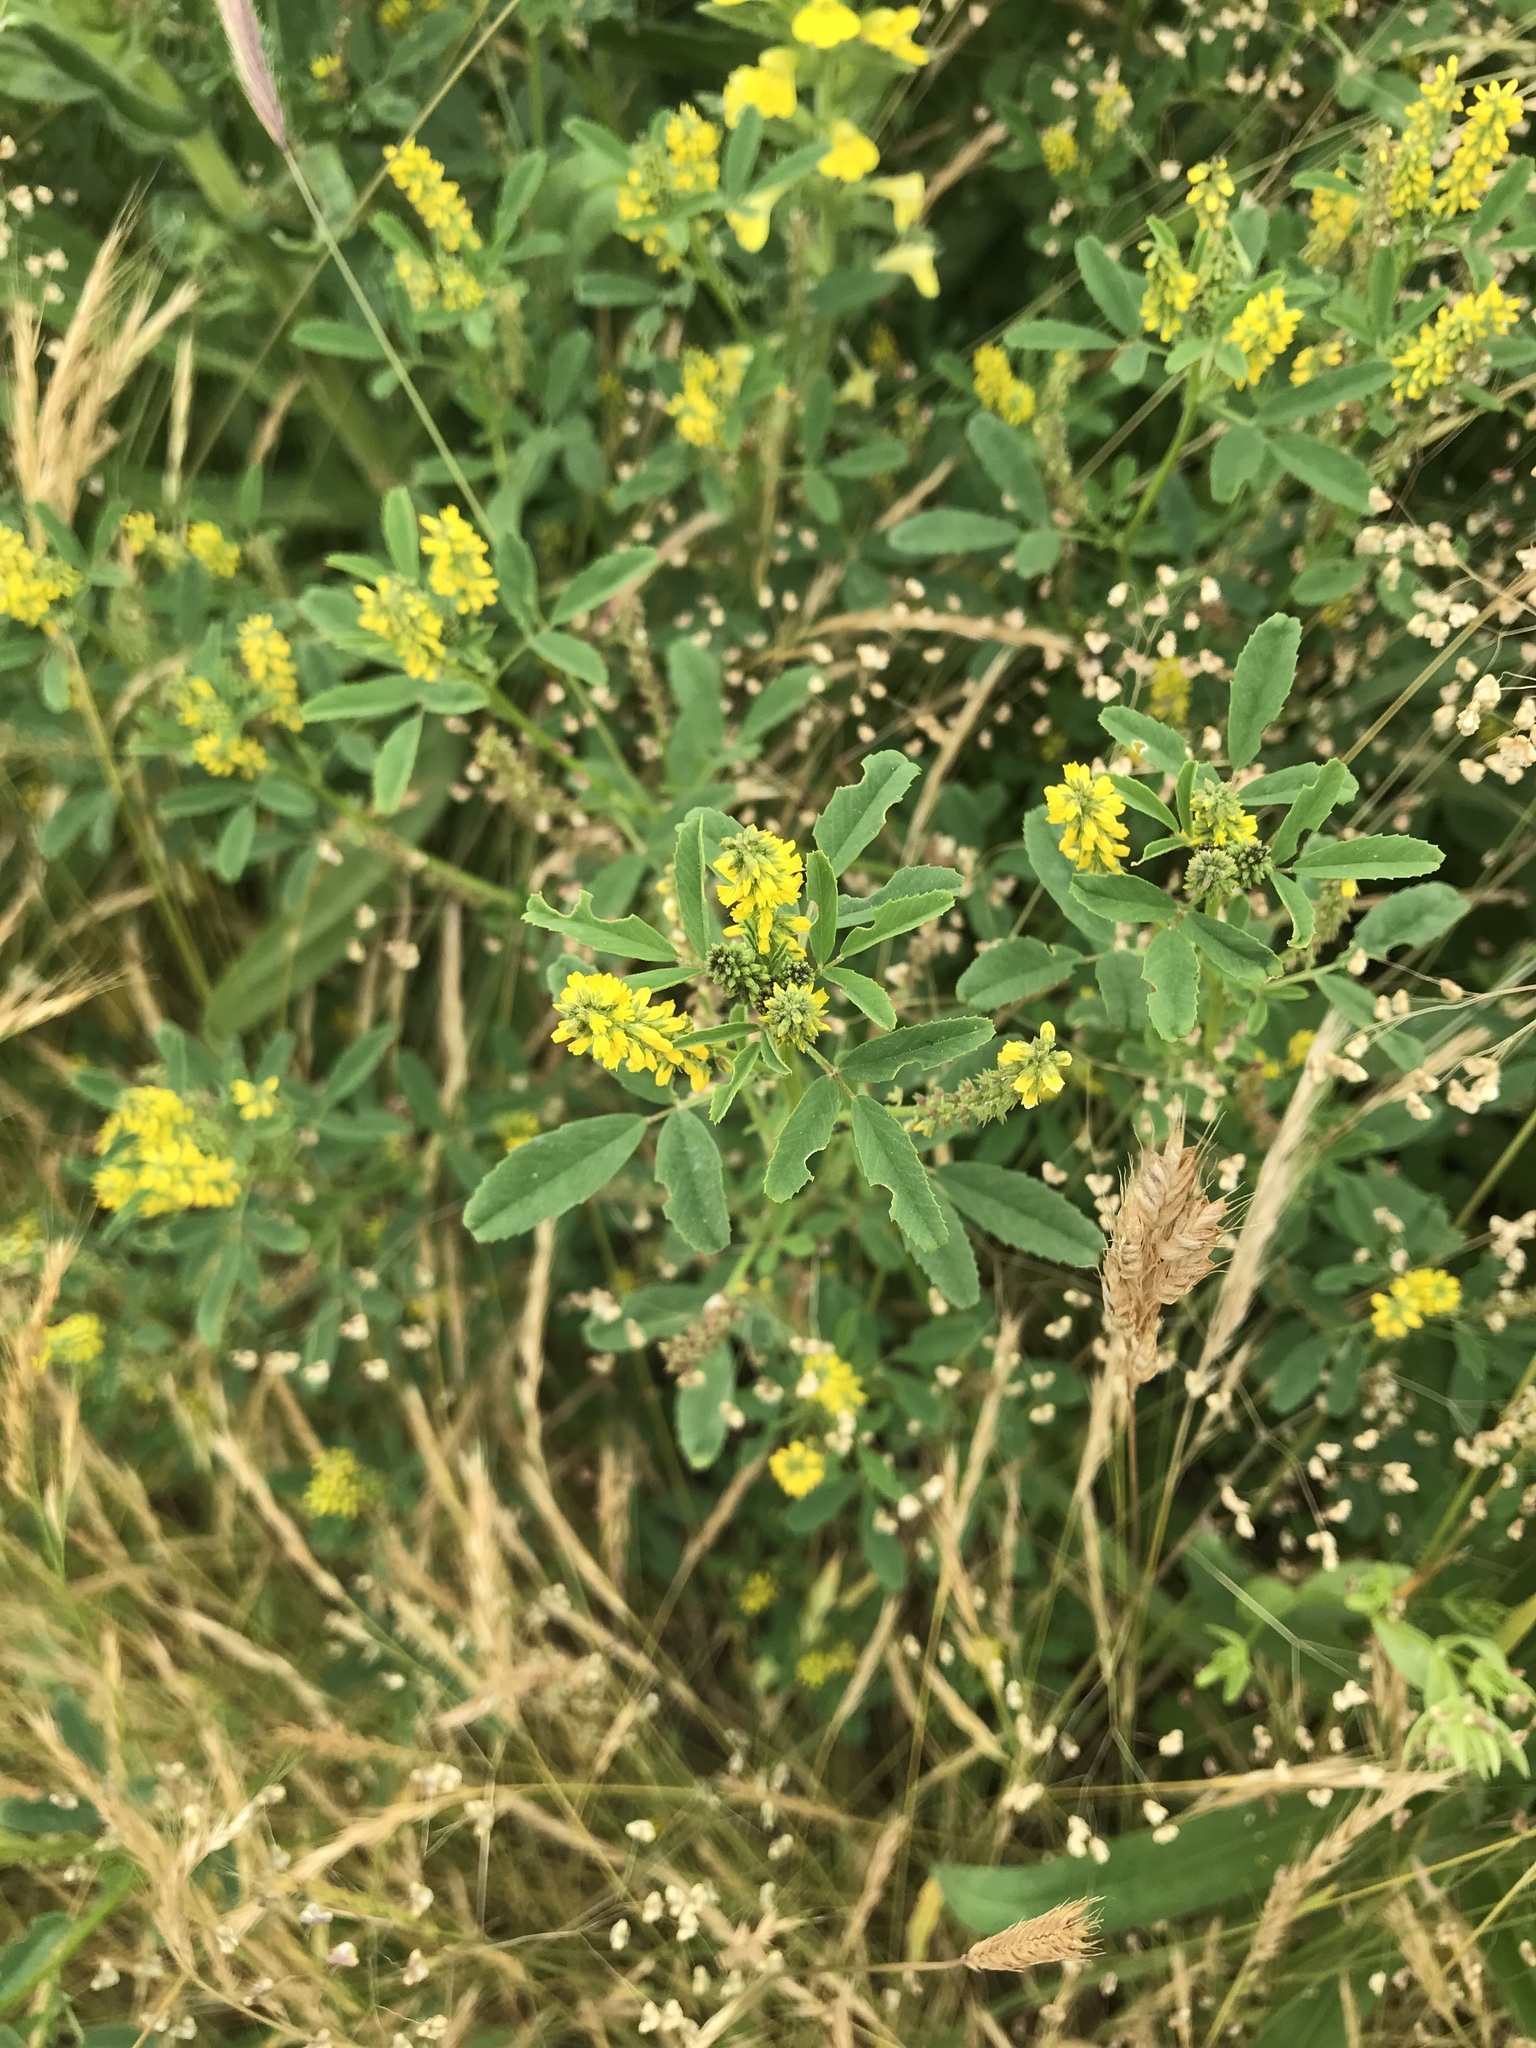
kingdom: Plantae
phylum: Tracheophyta
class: Magnoliopsida
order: Fabales
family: Fabaceae
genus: Melilotus
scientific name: Melilotus indicus
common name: Small melilot
